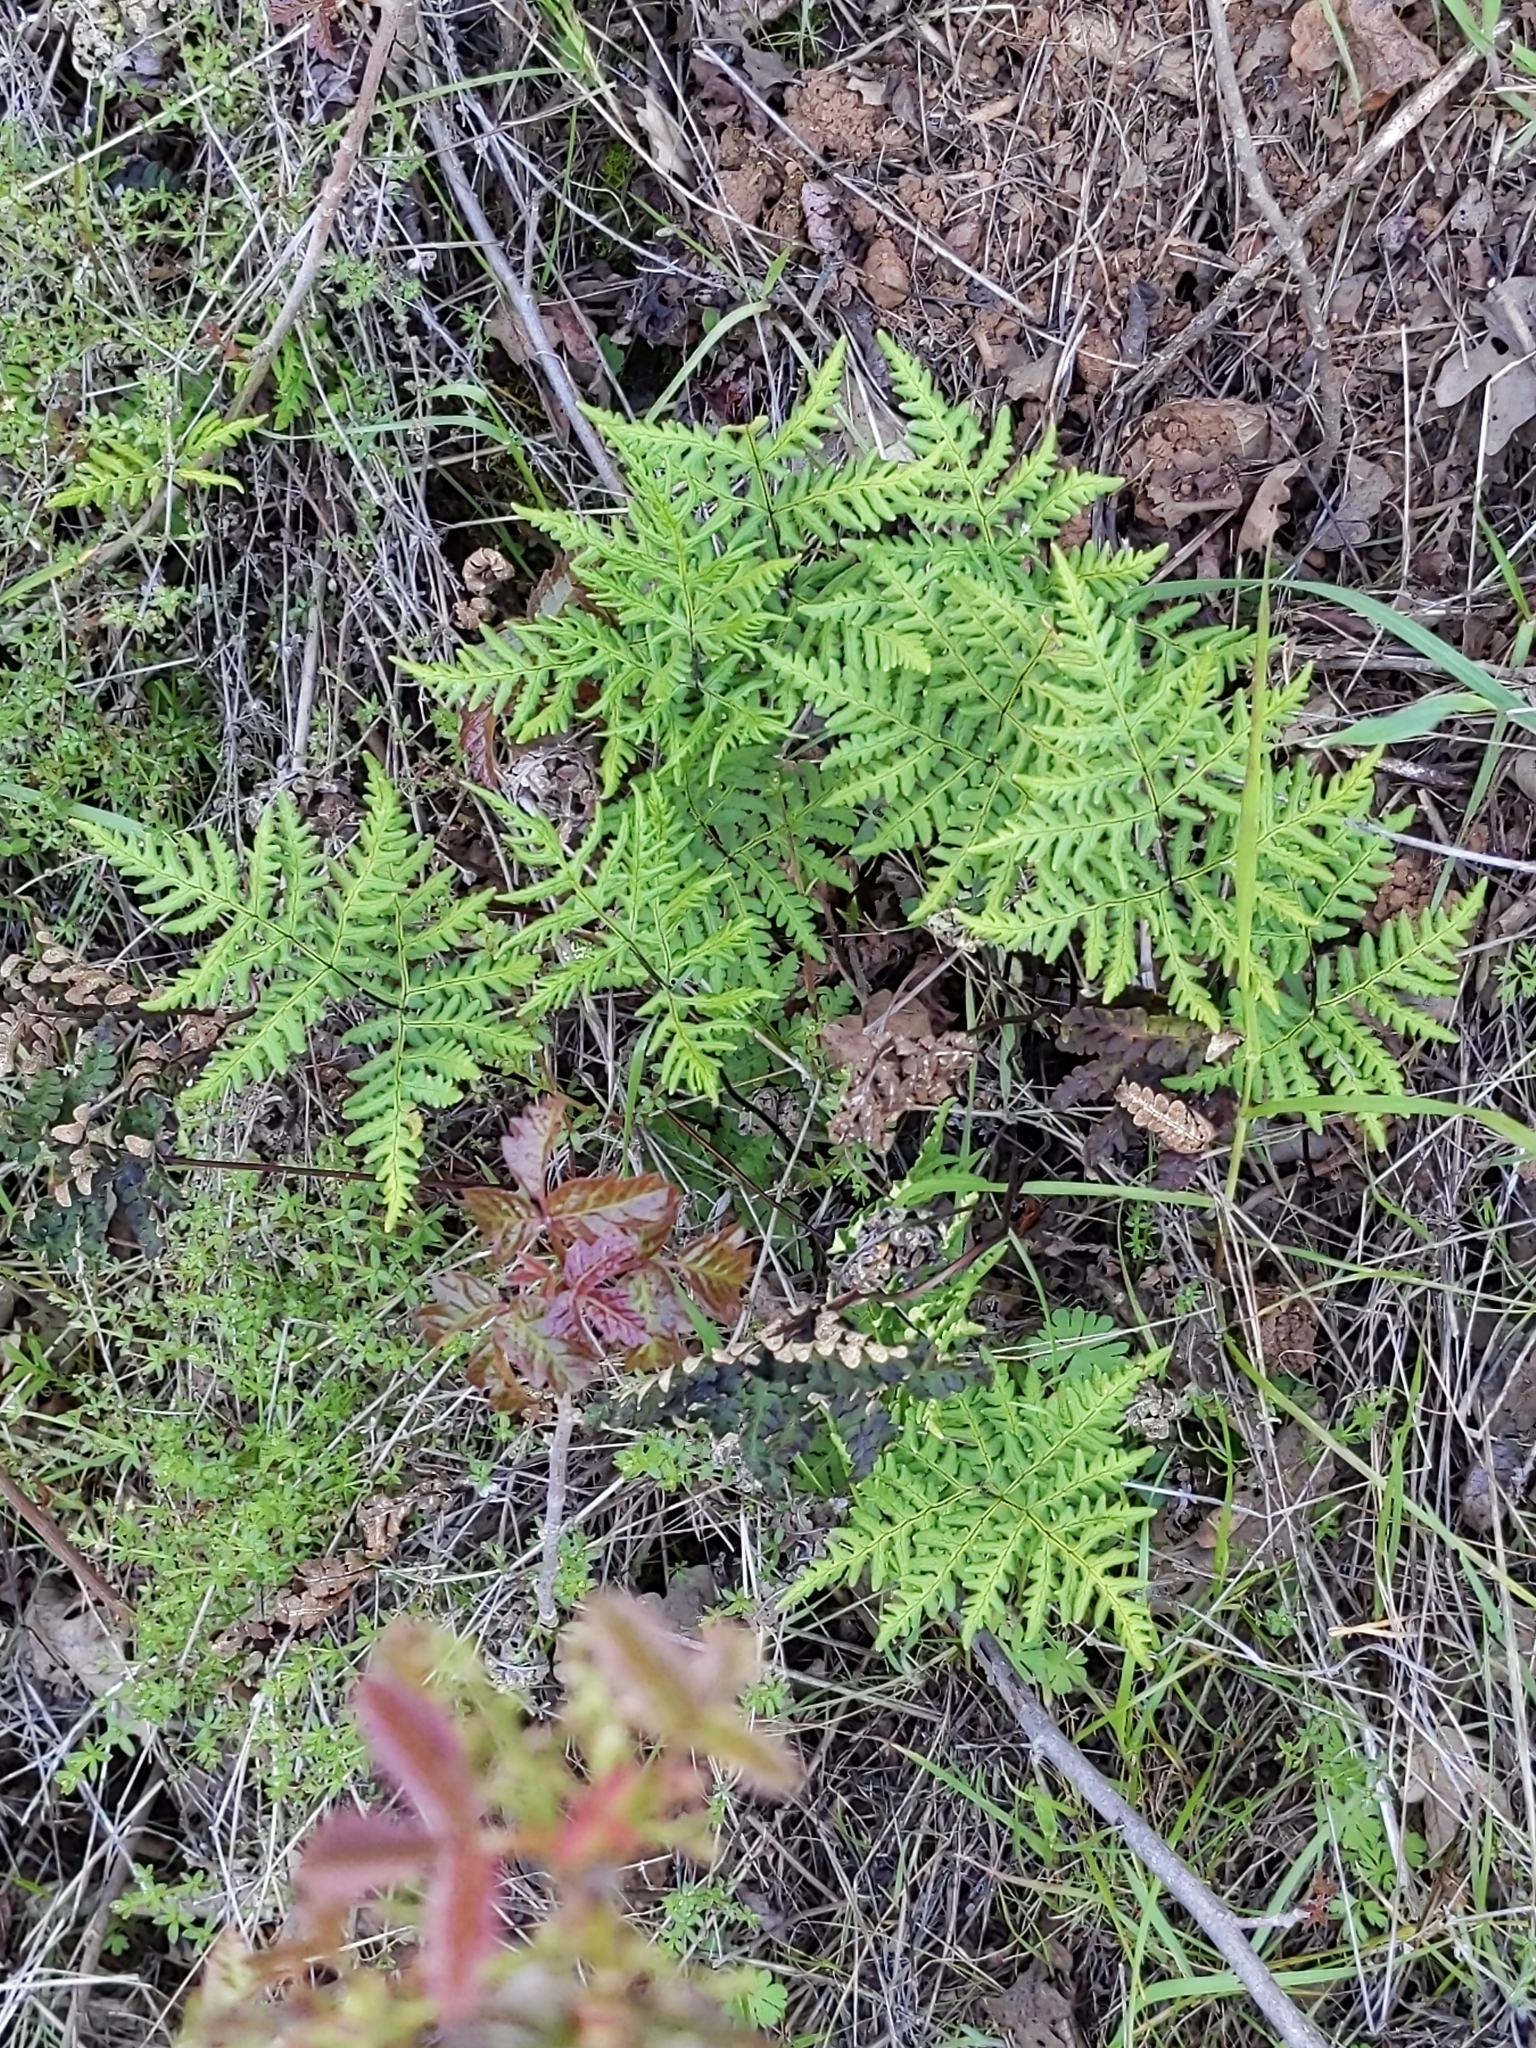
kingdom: Plantae
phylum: Tracheophyta
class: Polypodiopsida
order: Polypodiales
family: Pteridaceae
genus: Pentagramma
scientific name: Pentagramma triangularis
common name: Gold fern
